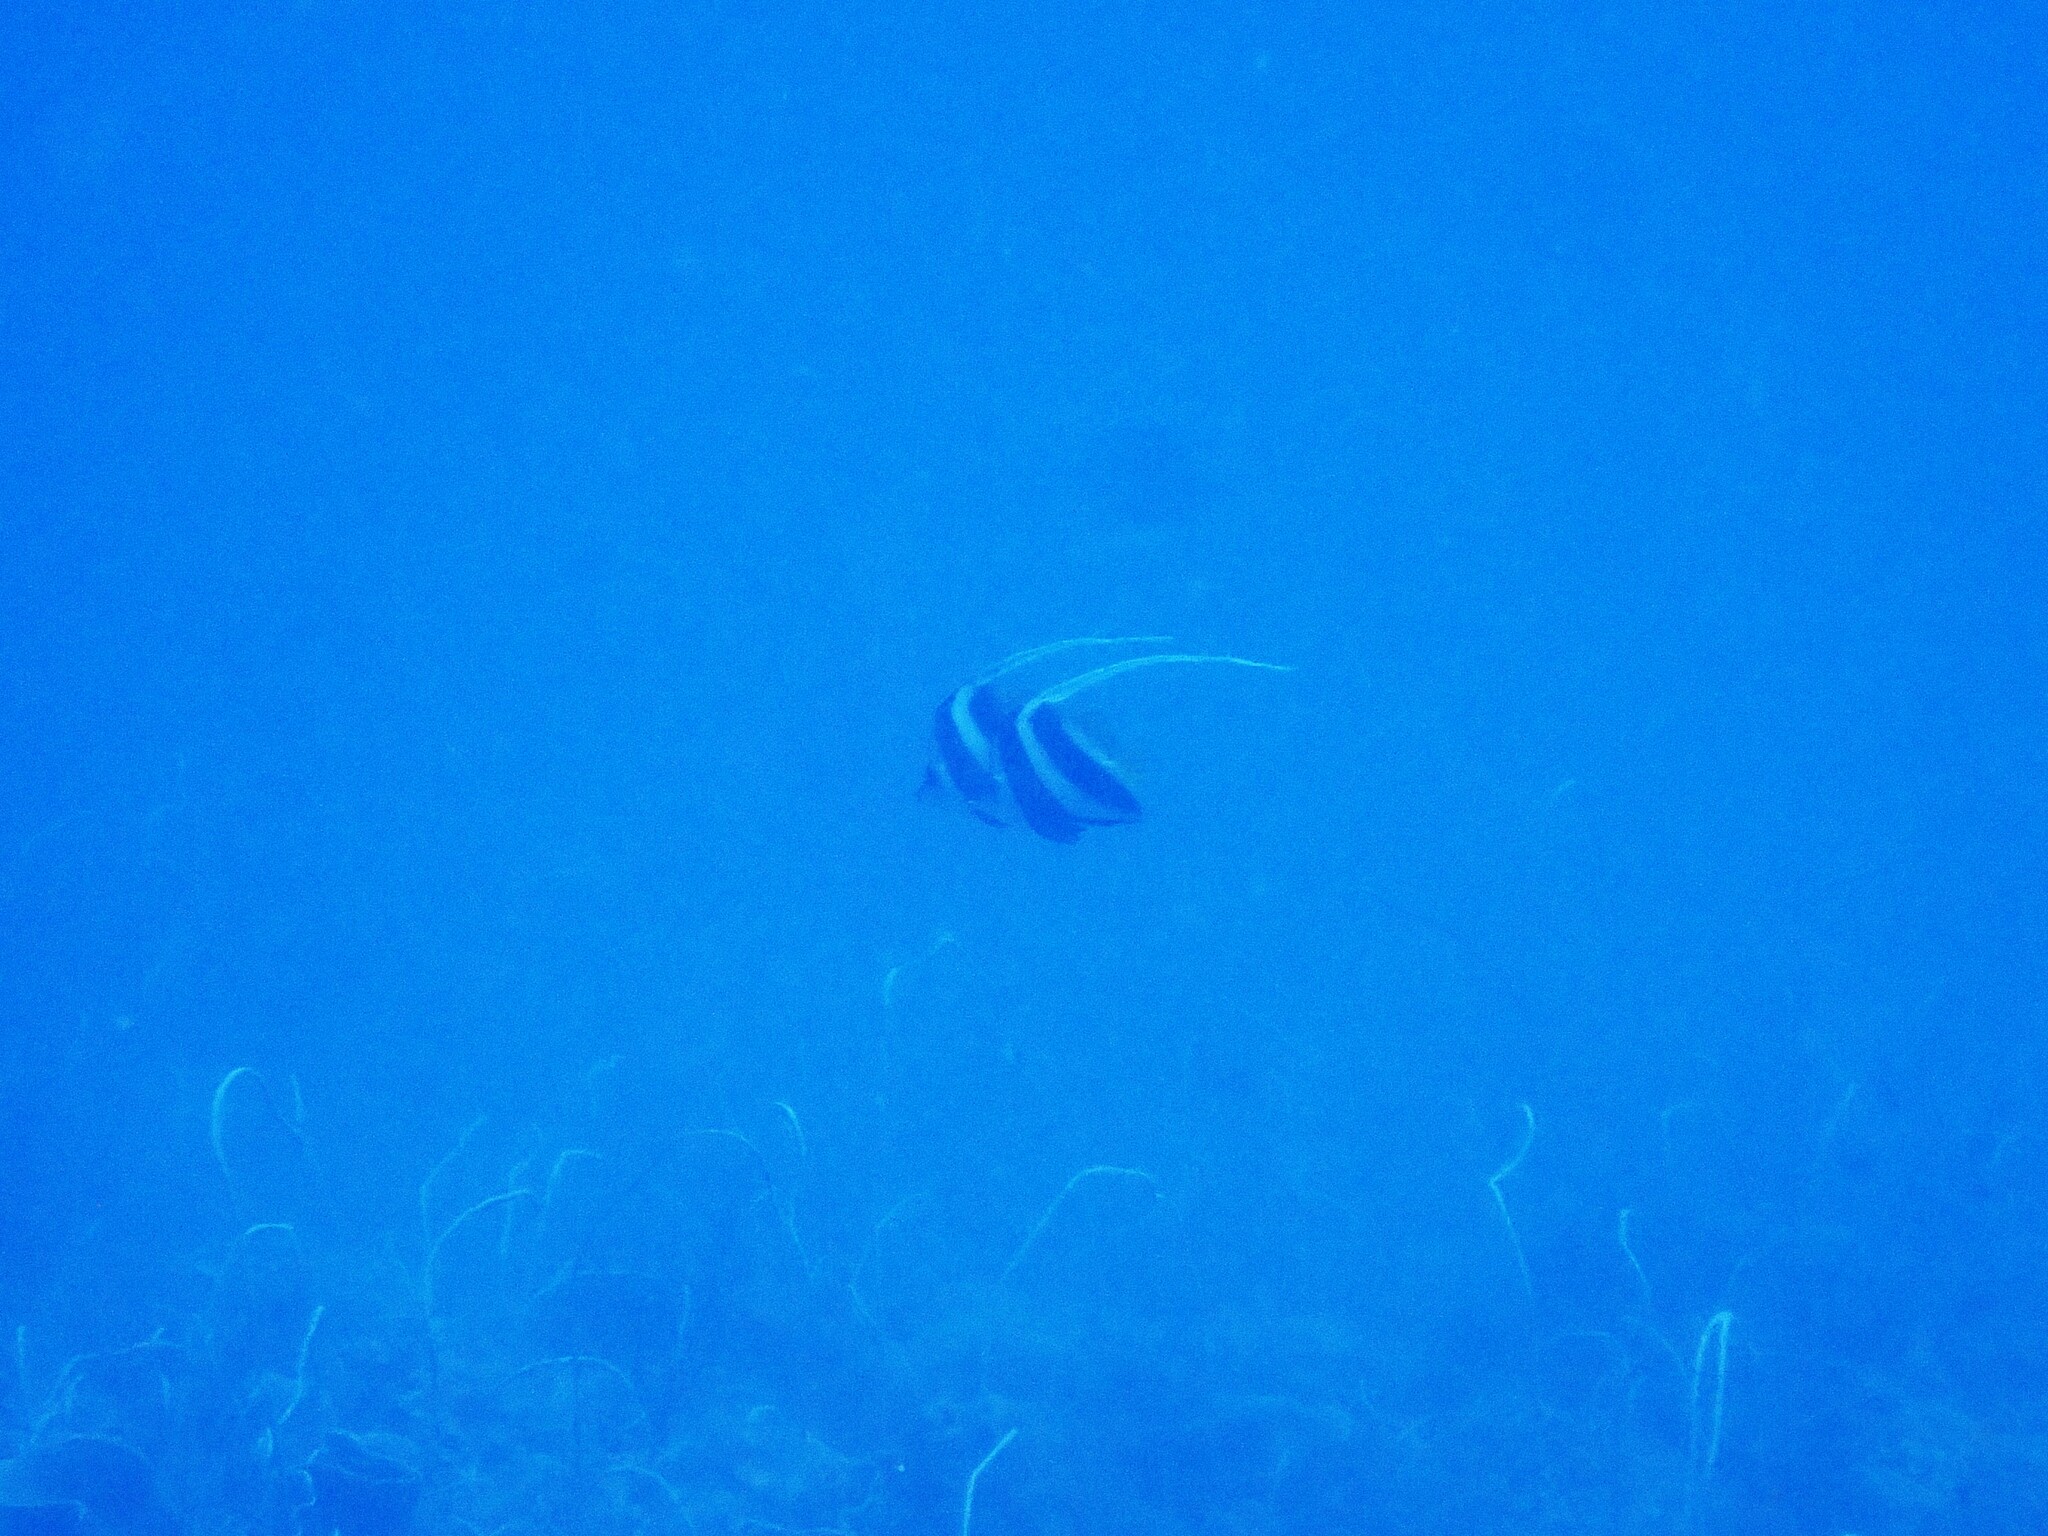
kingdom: Animalia
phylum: Chordata
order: Perciformes
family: Chaetodontidae
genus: Heniochus
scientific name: Heniochus acuminatus
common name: Pennant coralfish
